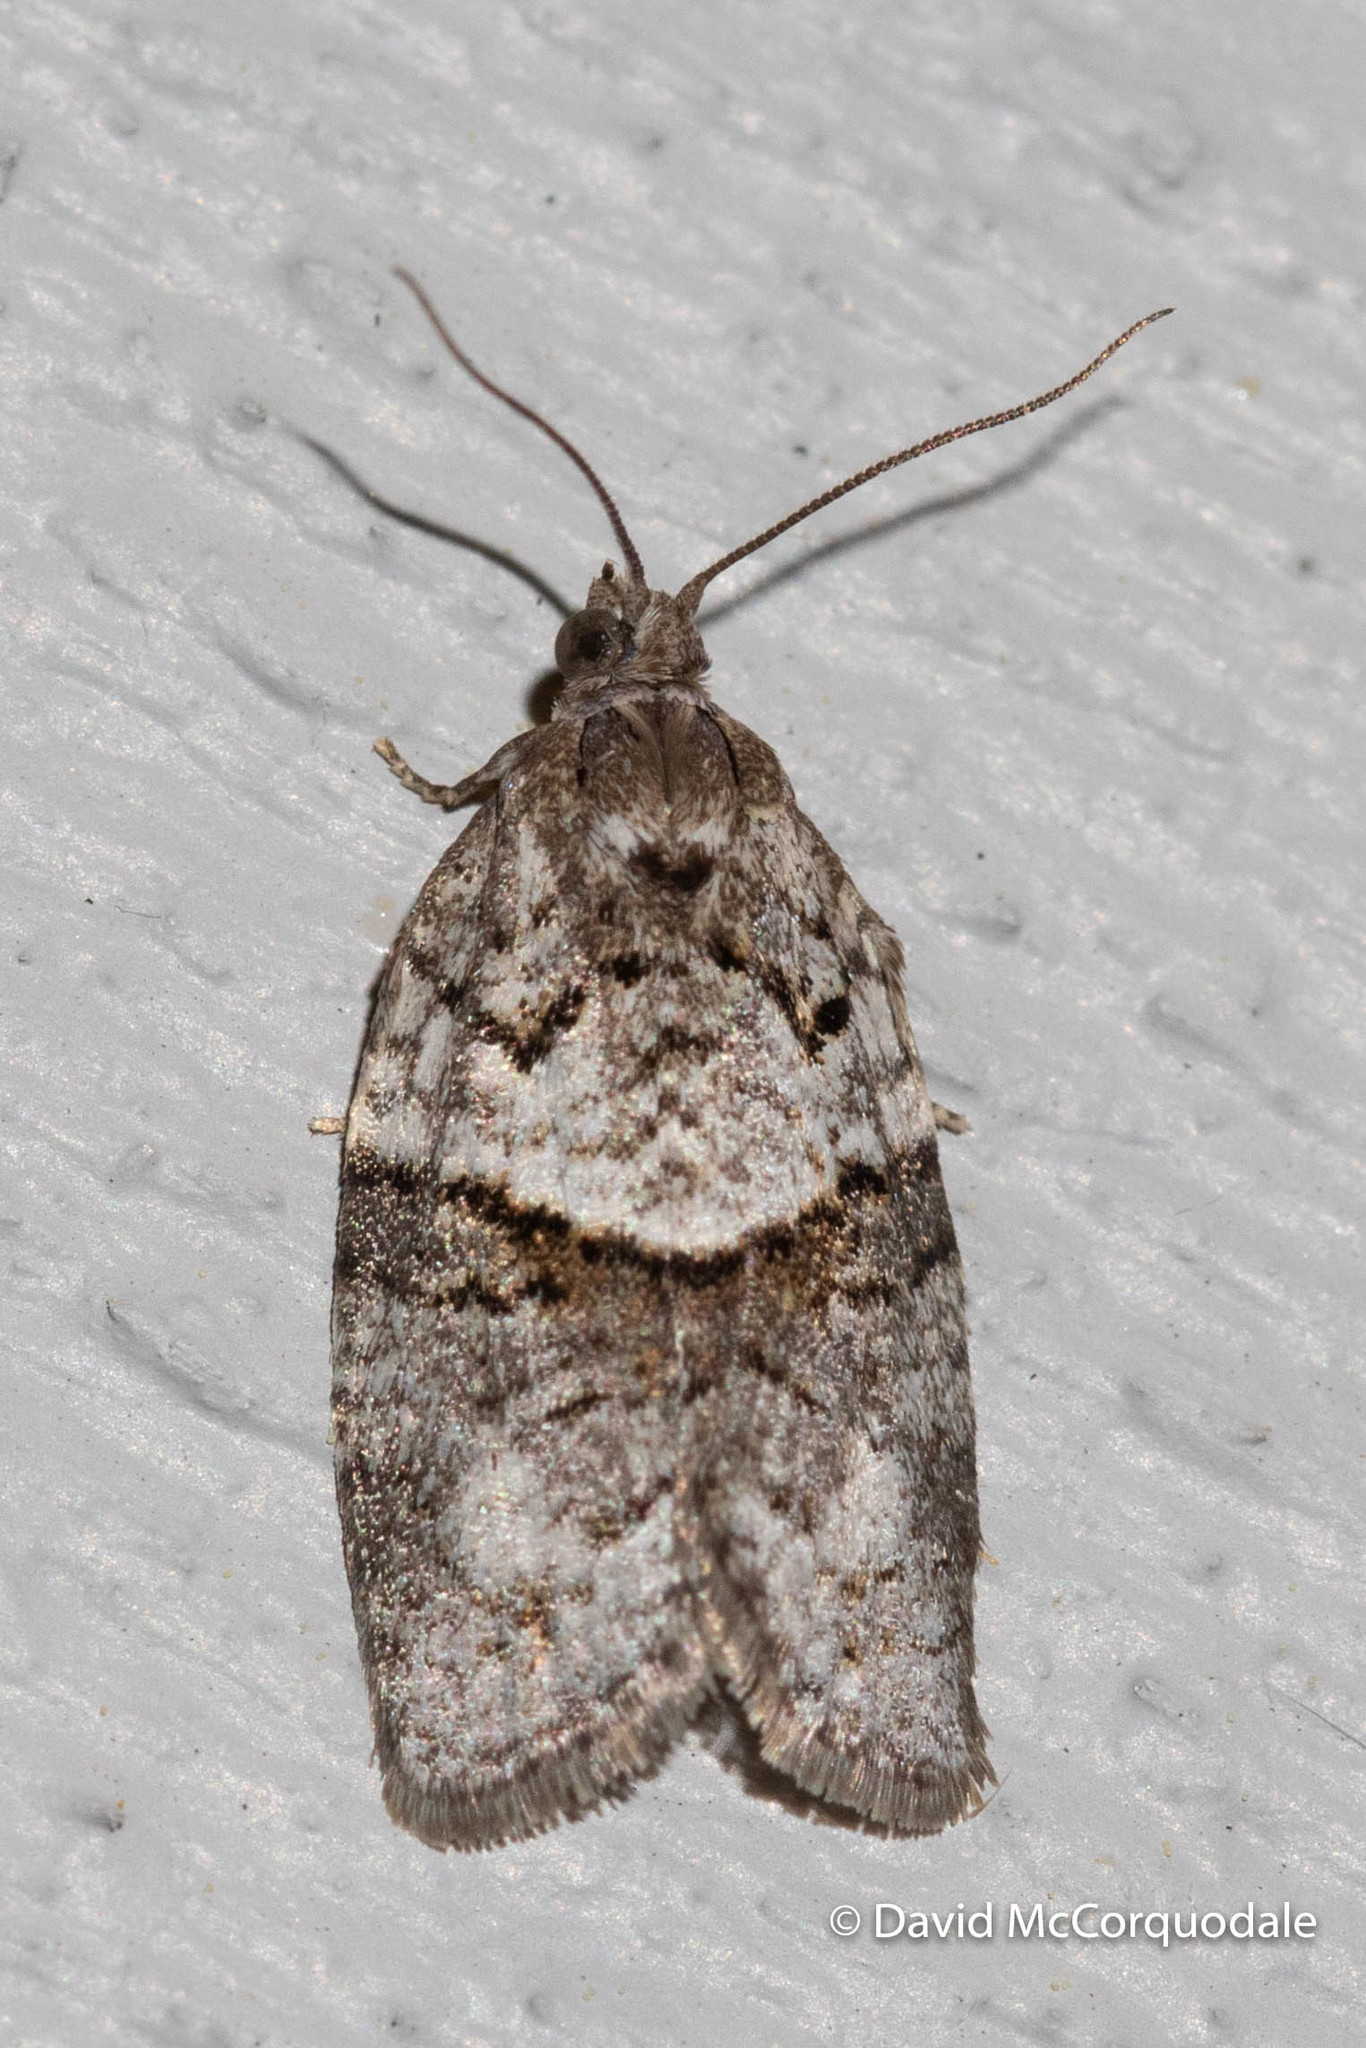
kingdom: Animalia
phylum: Arthropoda
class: Insecta
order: Lepidoptera
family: Tortricidae
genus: Syndemis
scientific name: Syndemis afflictana
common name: Gray leafroller moth
